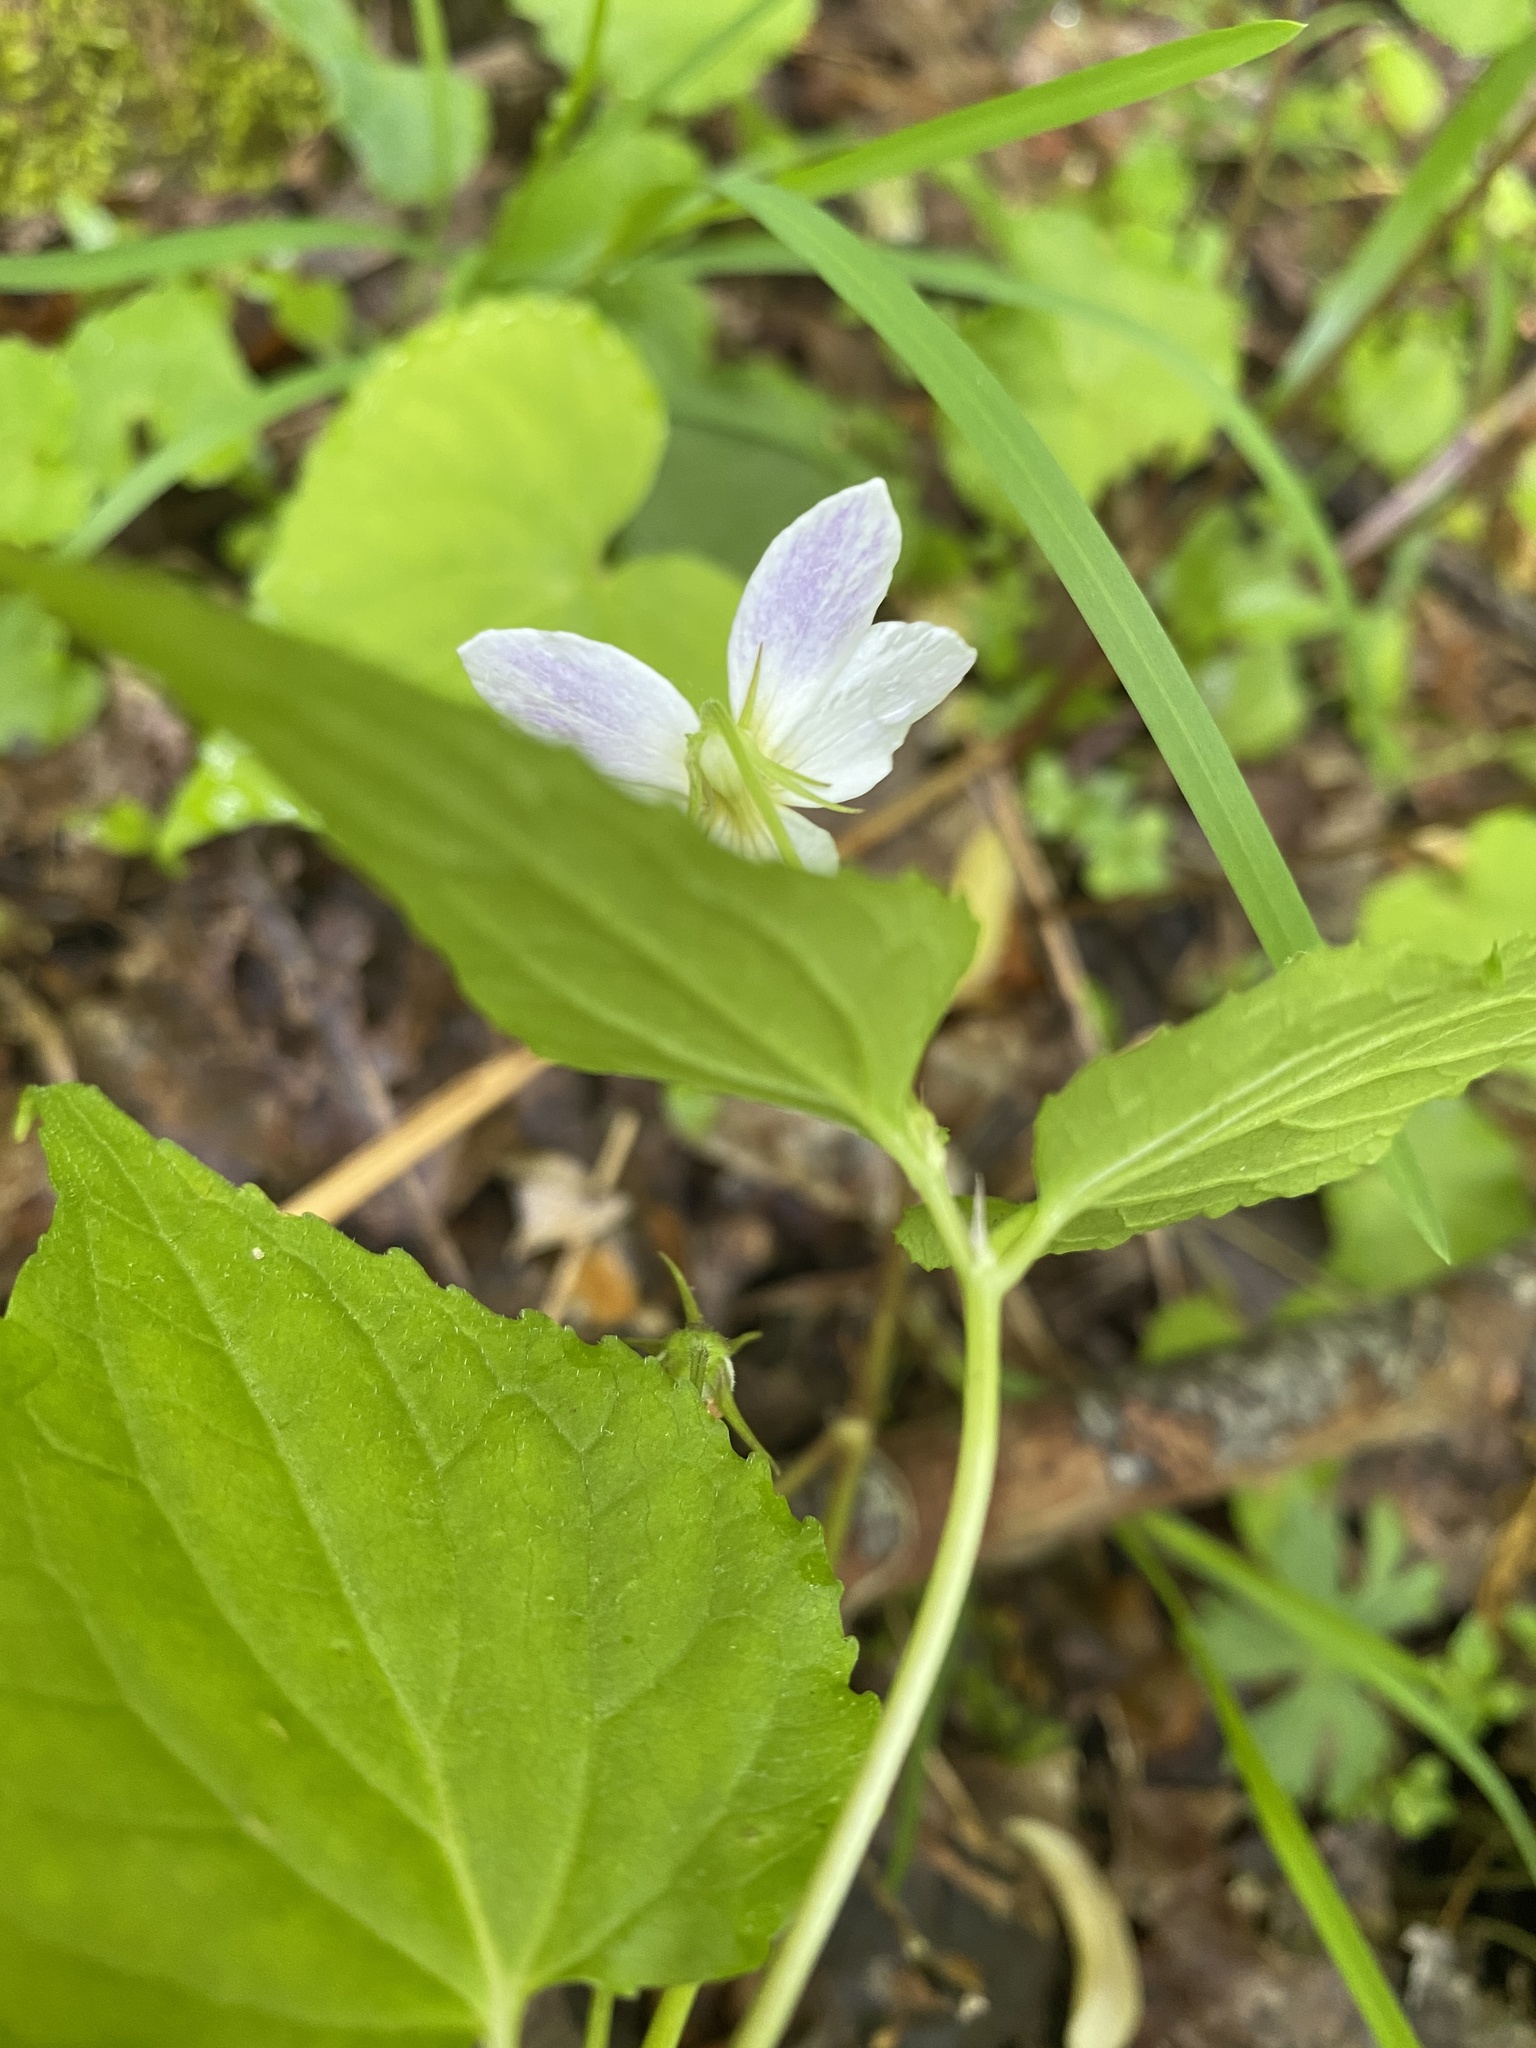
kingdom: Plantae
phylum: Tracheophyta
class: Magnoliopsida
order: Malpighiales
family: Violaceae
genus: Viola
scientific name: Viola canadensis
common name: Canada violet
